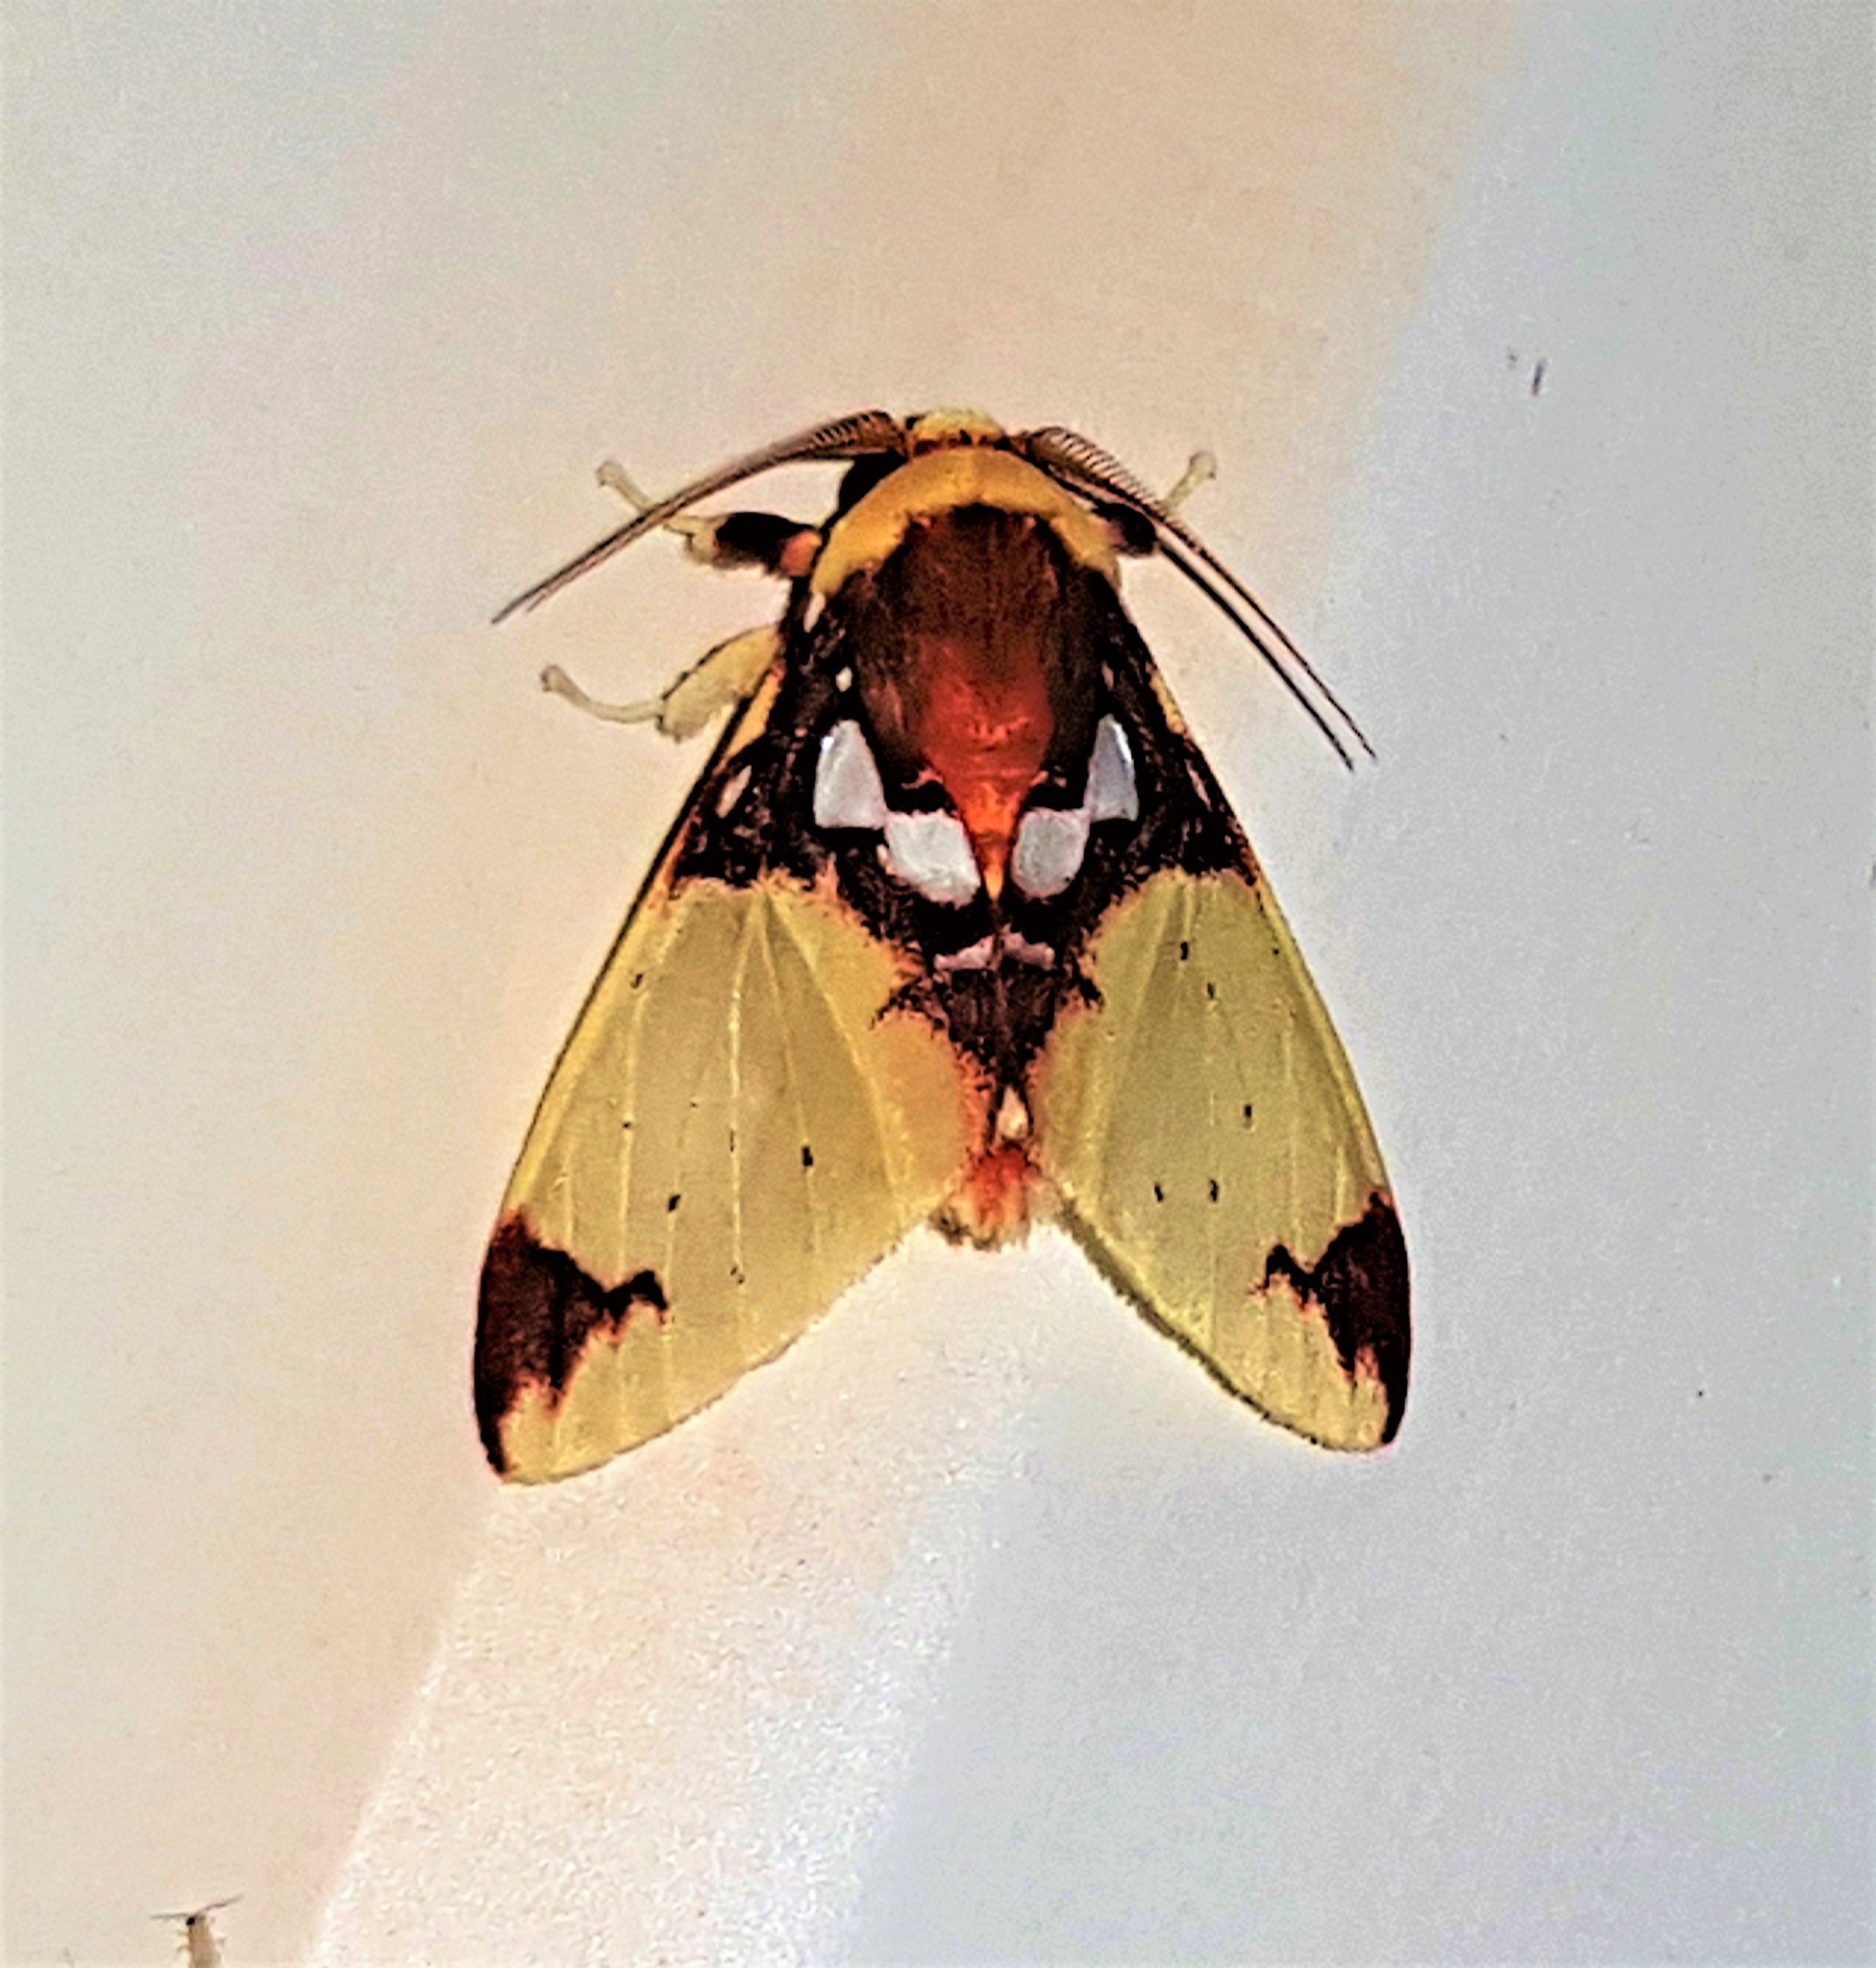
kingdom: Animalia
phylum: Arthropoda
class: Insecta
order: Lepidoptera
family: Erebidae
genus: Amaxia
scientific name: Amaxia chaon
